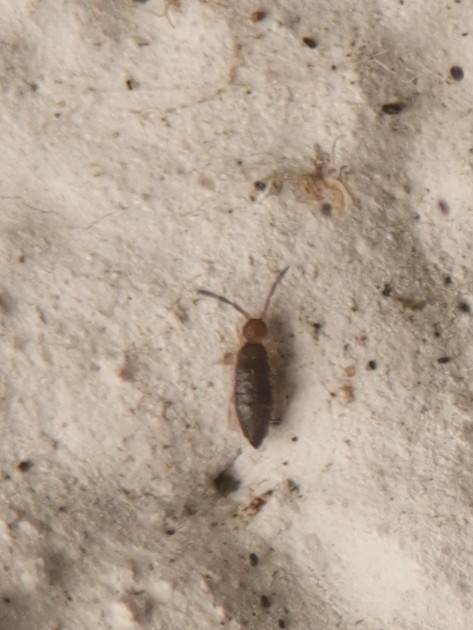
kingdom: Animalia
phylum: Arthropoda
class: Collembola
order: Entomobryomorpha
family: Entomobryidae
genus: Willowsia
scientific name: Willowsia buski
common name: Damp grain springtail
